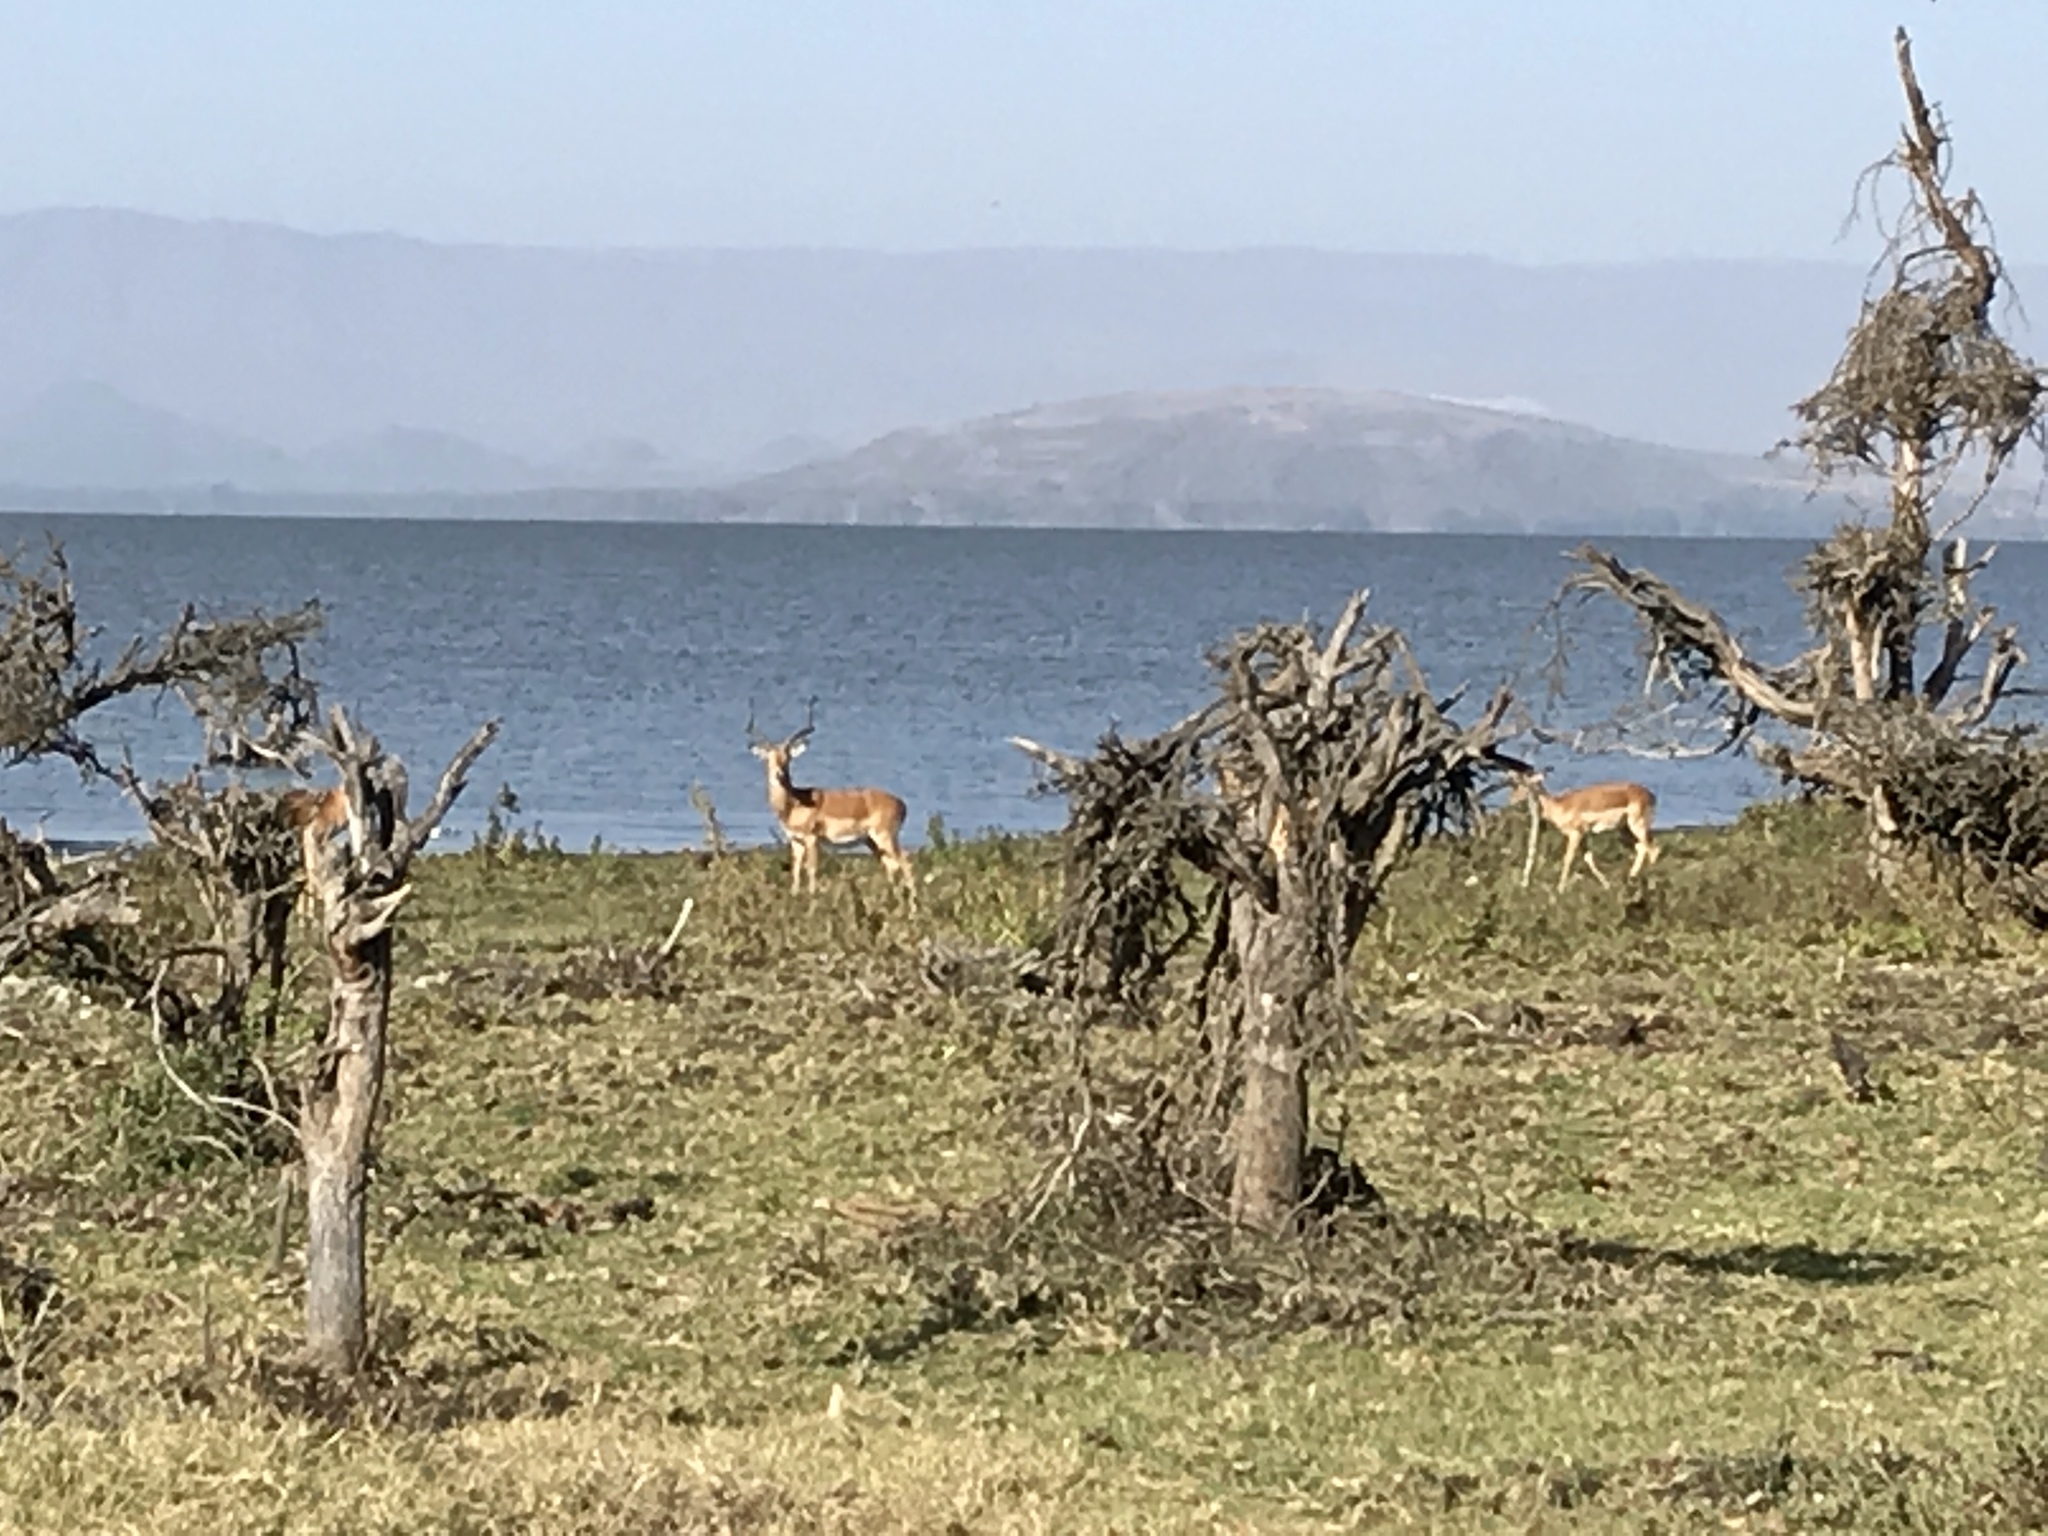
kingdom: Animalia
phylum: Chordata
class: Mammalia
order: Artiodactyla
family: Bovidae
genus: Aepyceros
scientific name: Aepyceros melampus
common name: Impala
